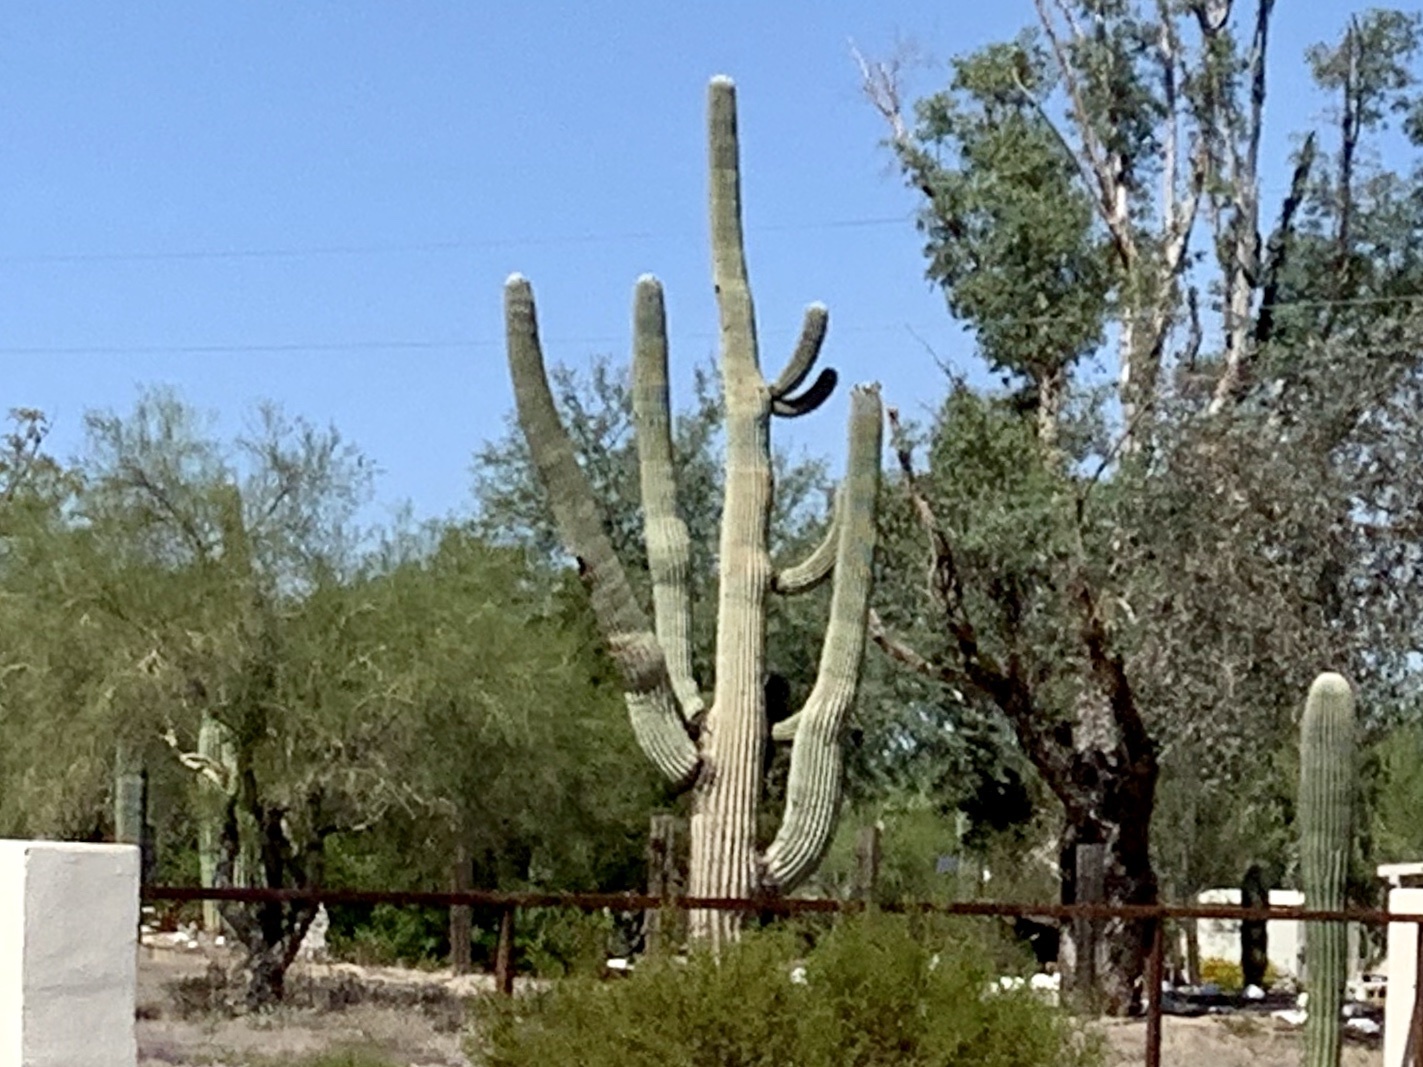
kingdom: Plantae
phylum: Tracheophyta
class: Magnoliopsida
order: Caryophyllales
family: Cactaceae
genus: Carnegiea
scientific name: Carnegiea gigantea
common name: Saguaro
